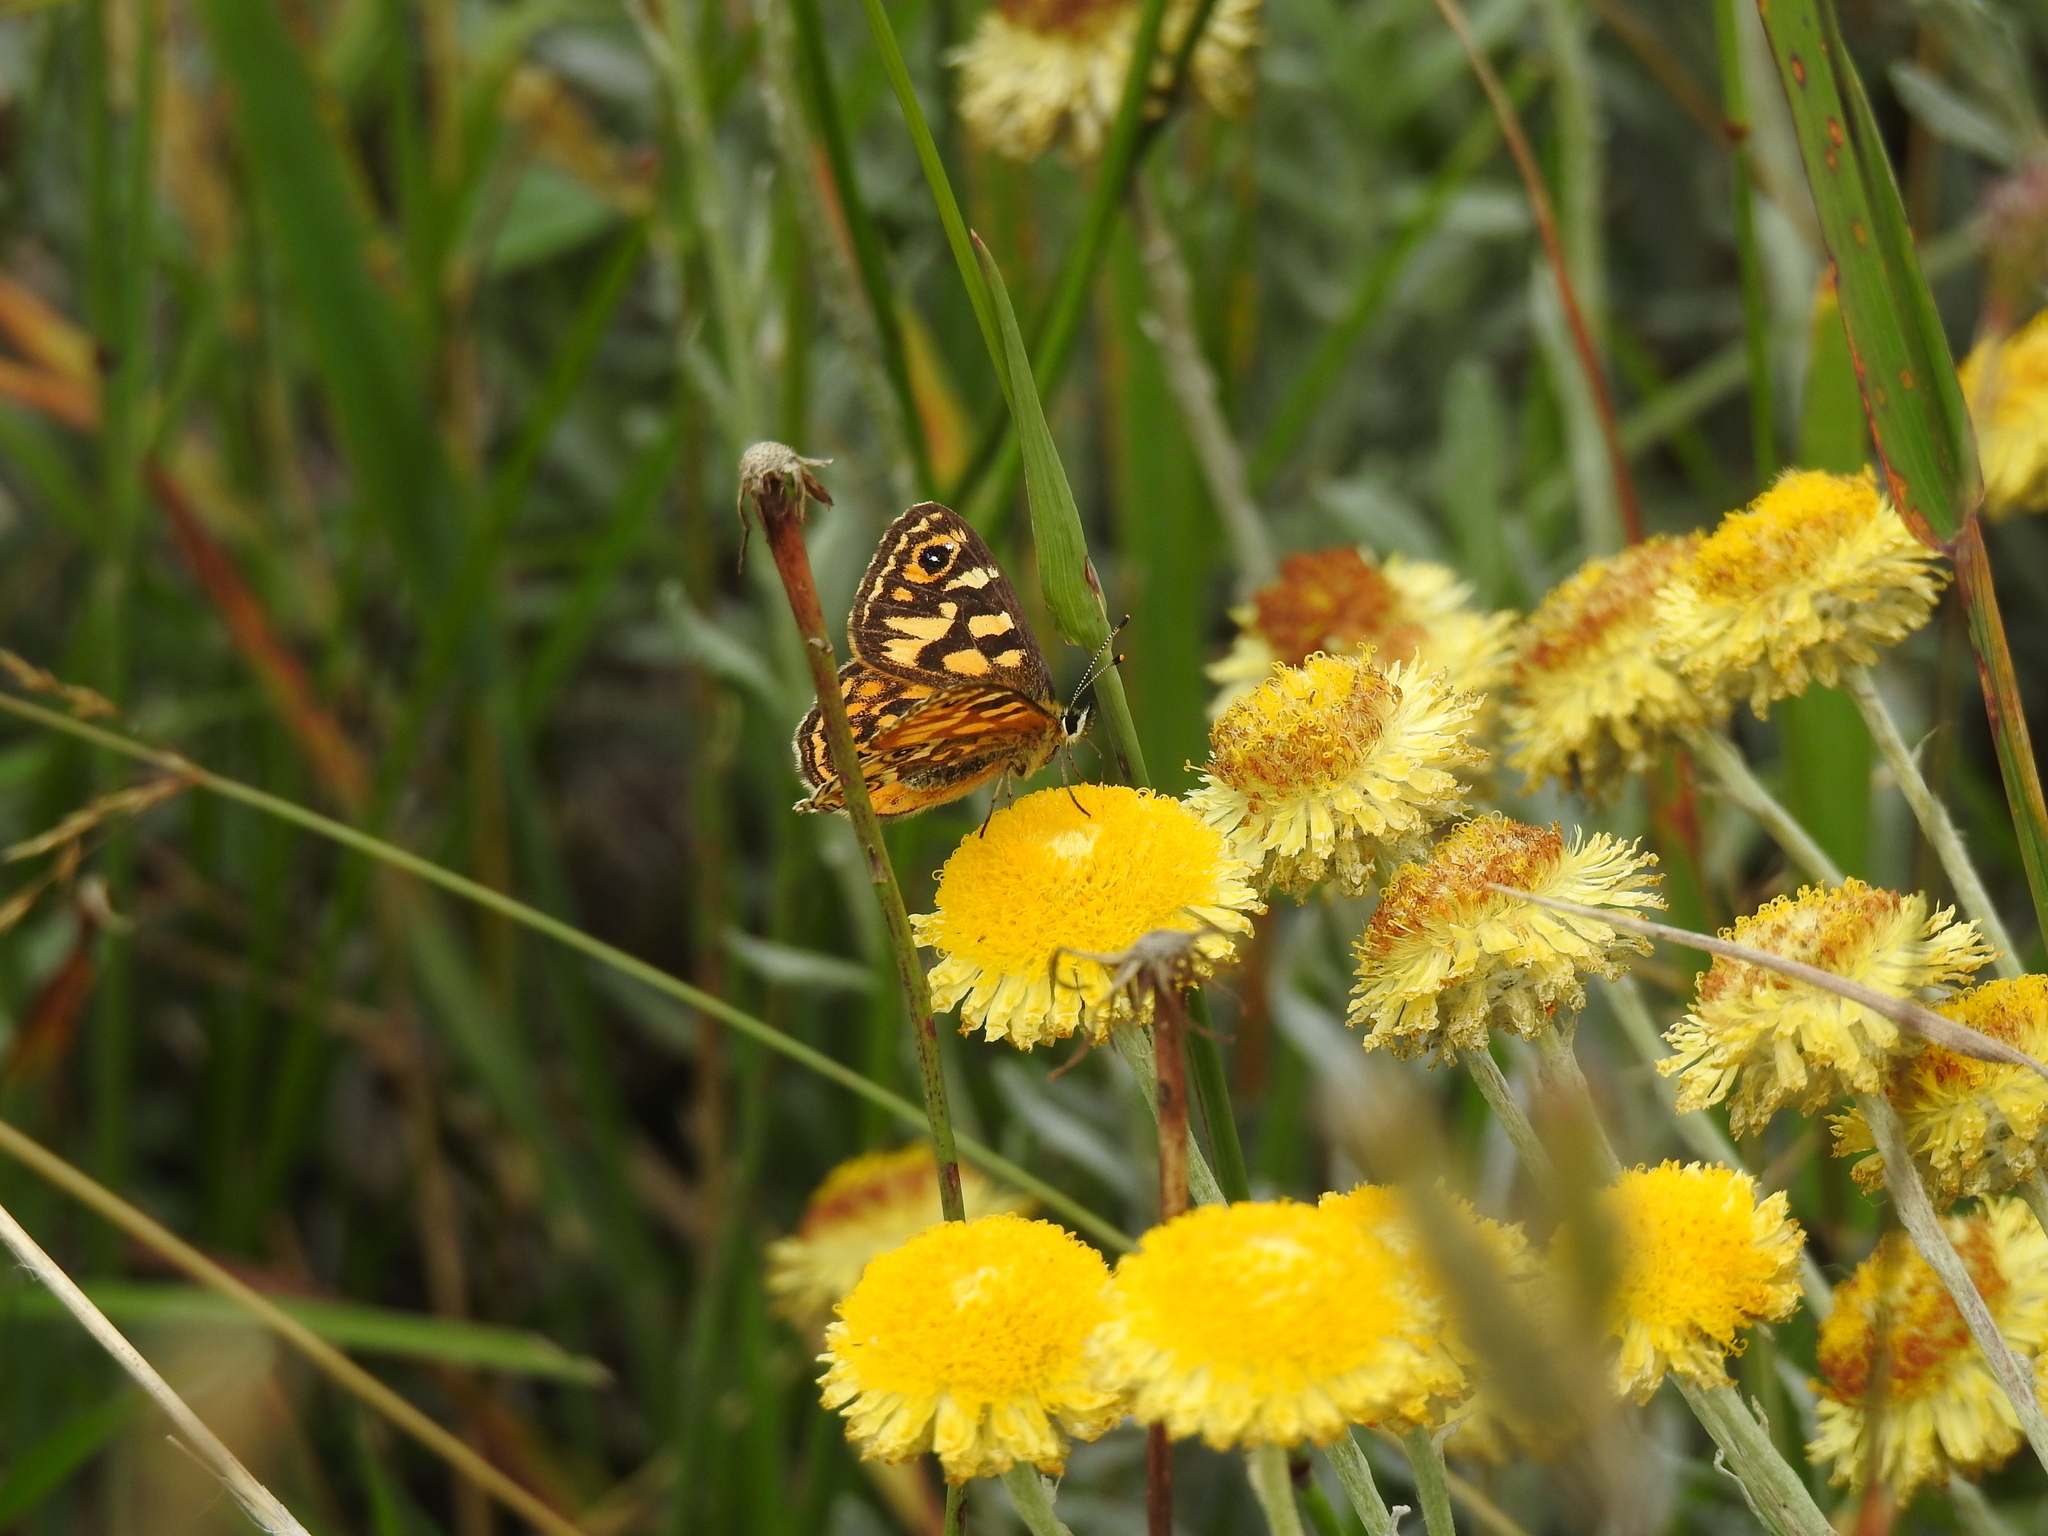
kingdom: Animalia
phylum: Arthropoda
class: Insecta
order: Lepidoptera
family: Nymphalidae
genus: Oreixenica
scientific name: Oreixenica correae
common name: Correa brown
